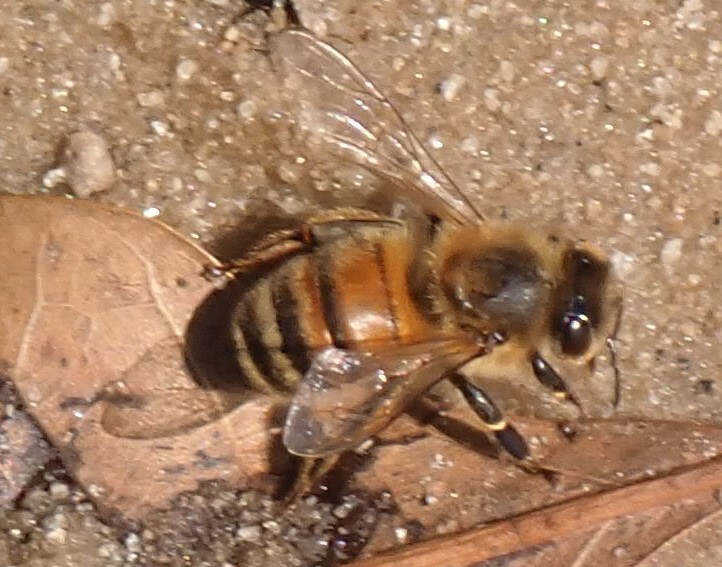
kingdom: Animalia
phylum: Arthropoda
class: Insecta
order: Hymenoptera
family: Apidae
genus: Apis
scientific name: Apis mellifera
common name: Honey bee
